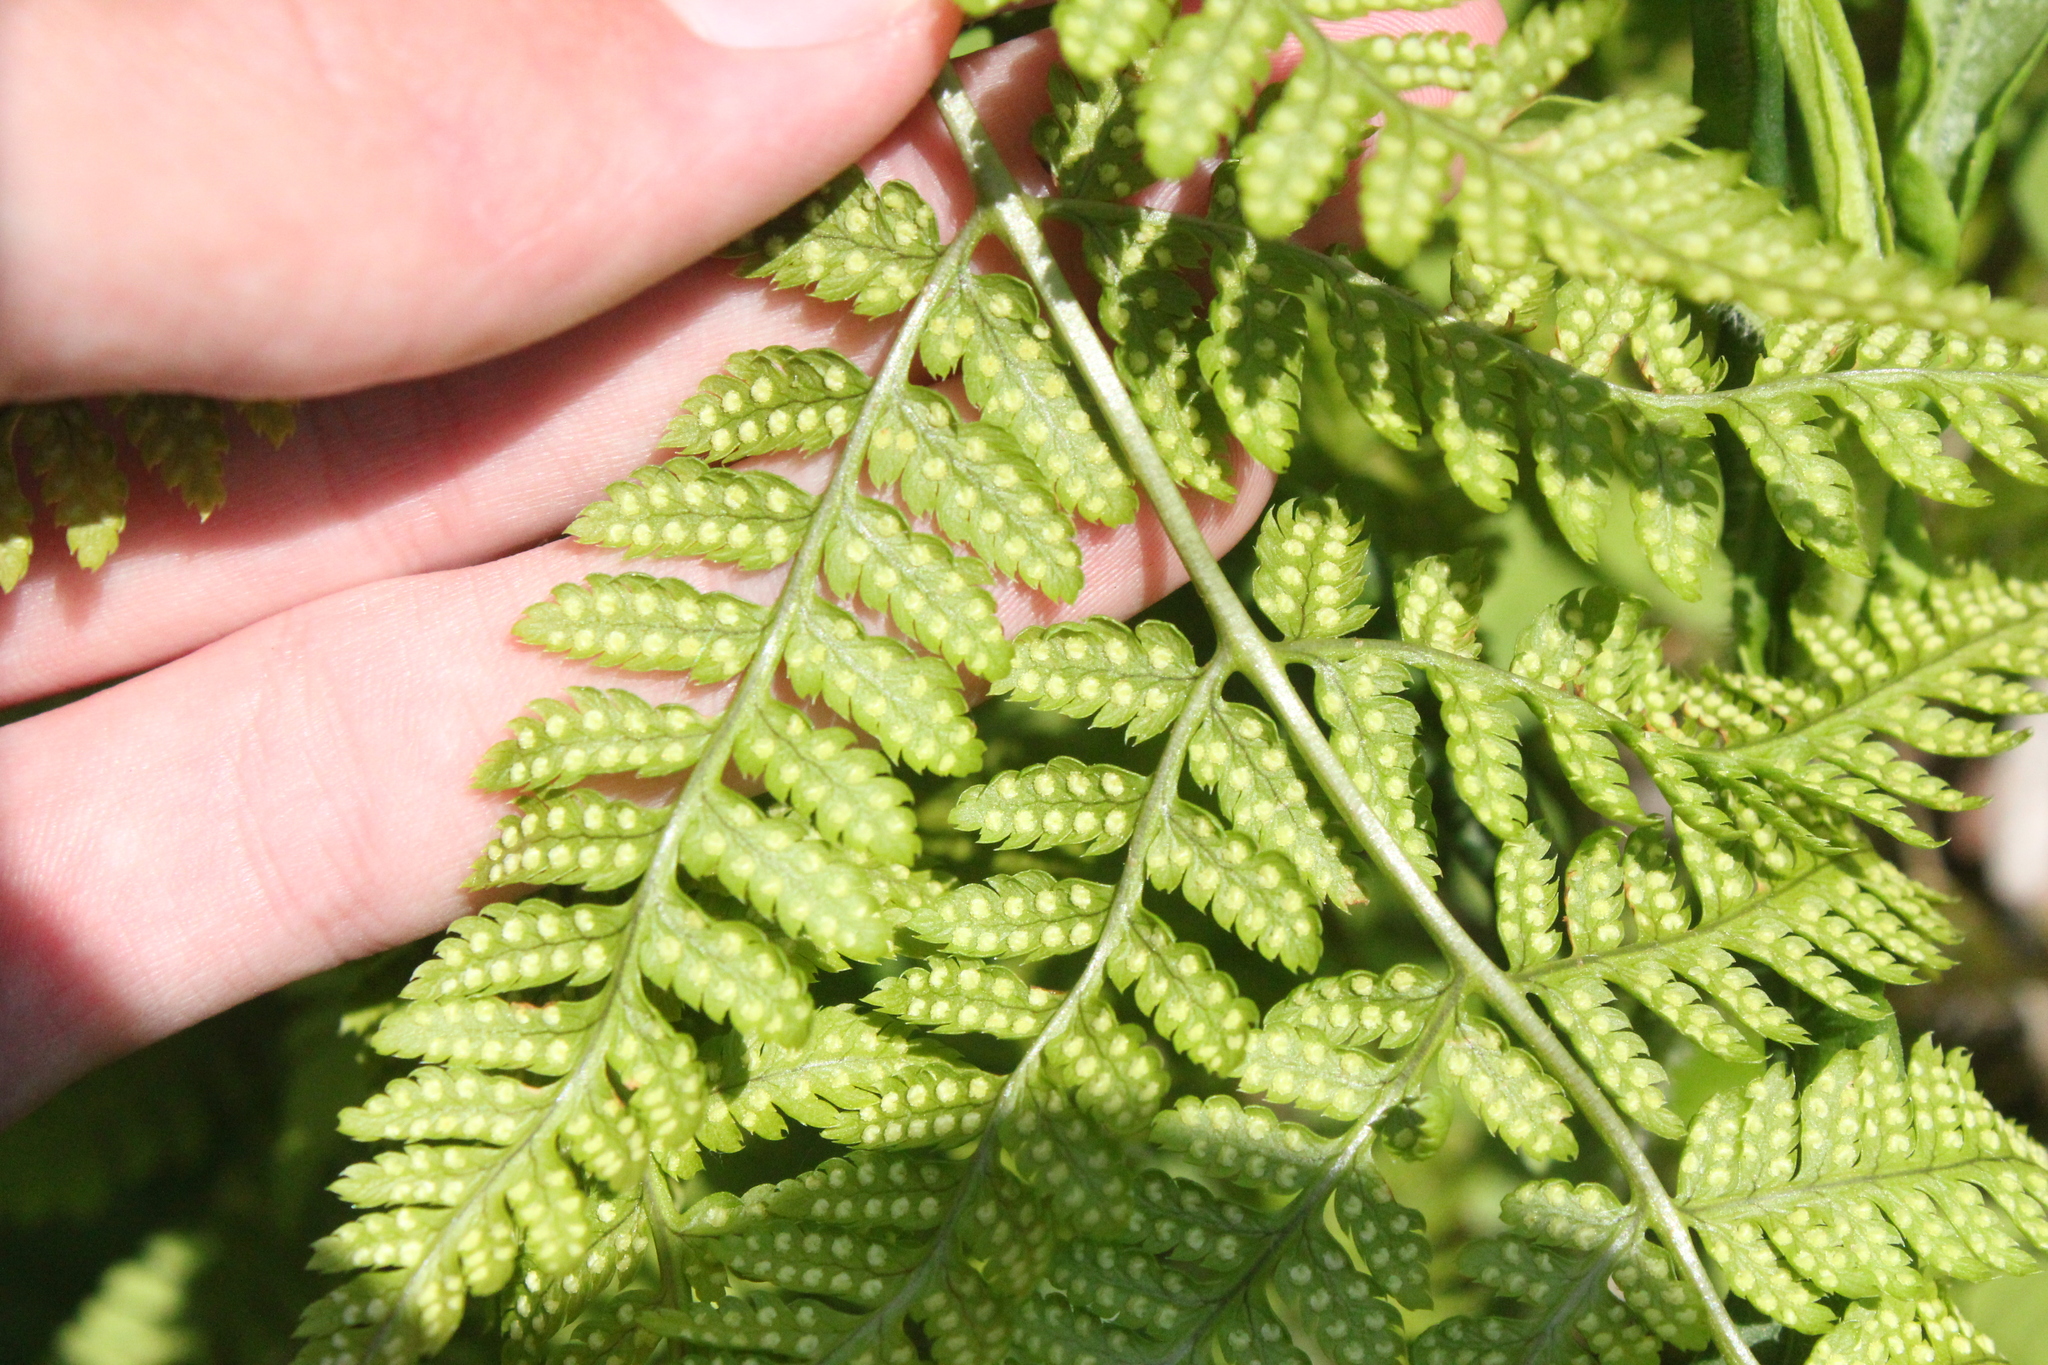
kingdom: Plantae
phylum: Tracheophyta
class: Polypodiopsida
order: Polypodiales
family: Dryopteridaceae
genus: Dryopteris
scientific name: Dryopteris carthusiana
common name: Narrow buckler-fern
